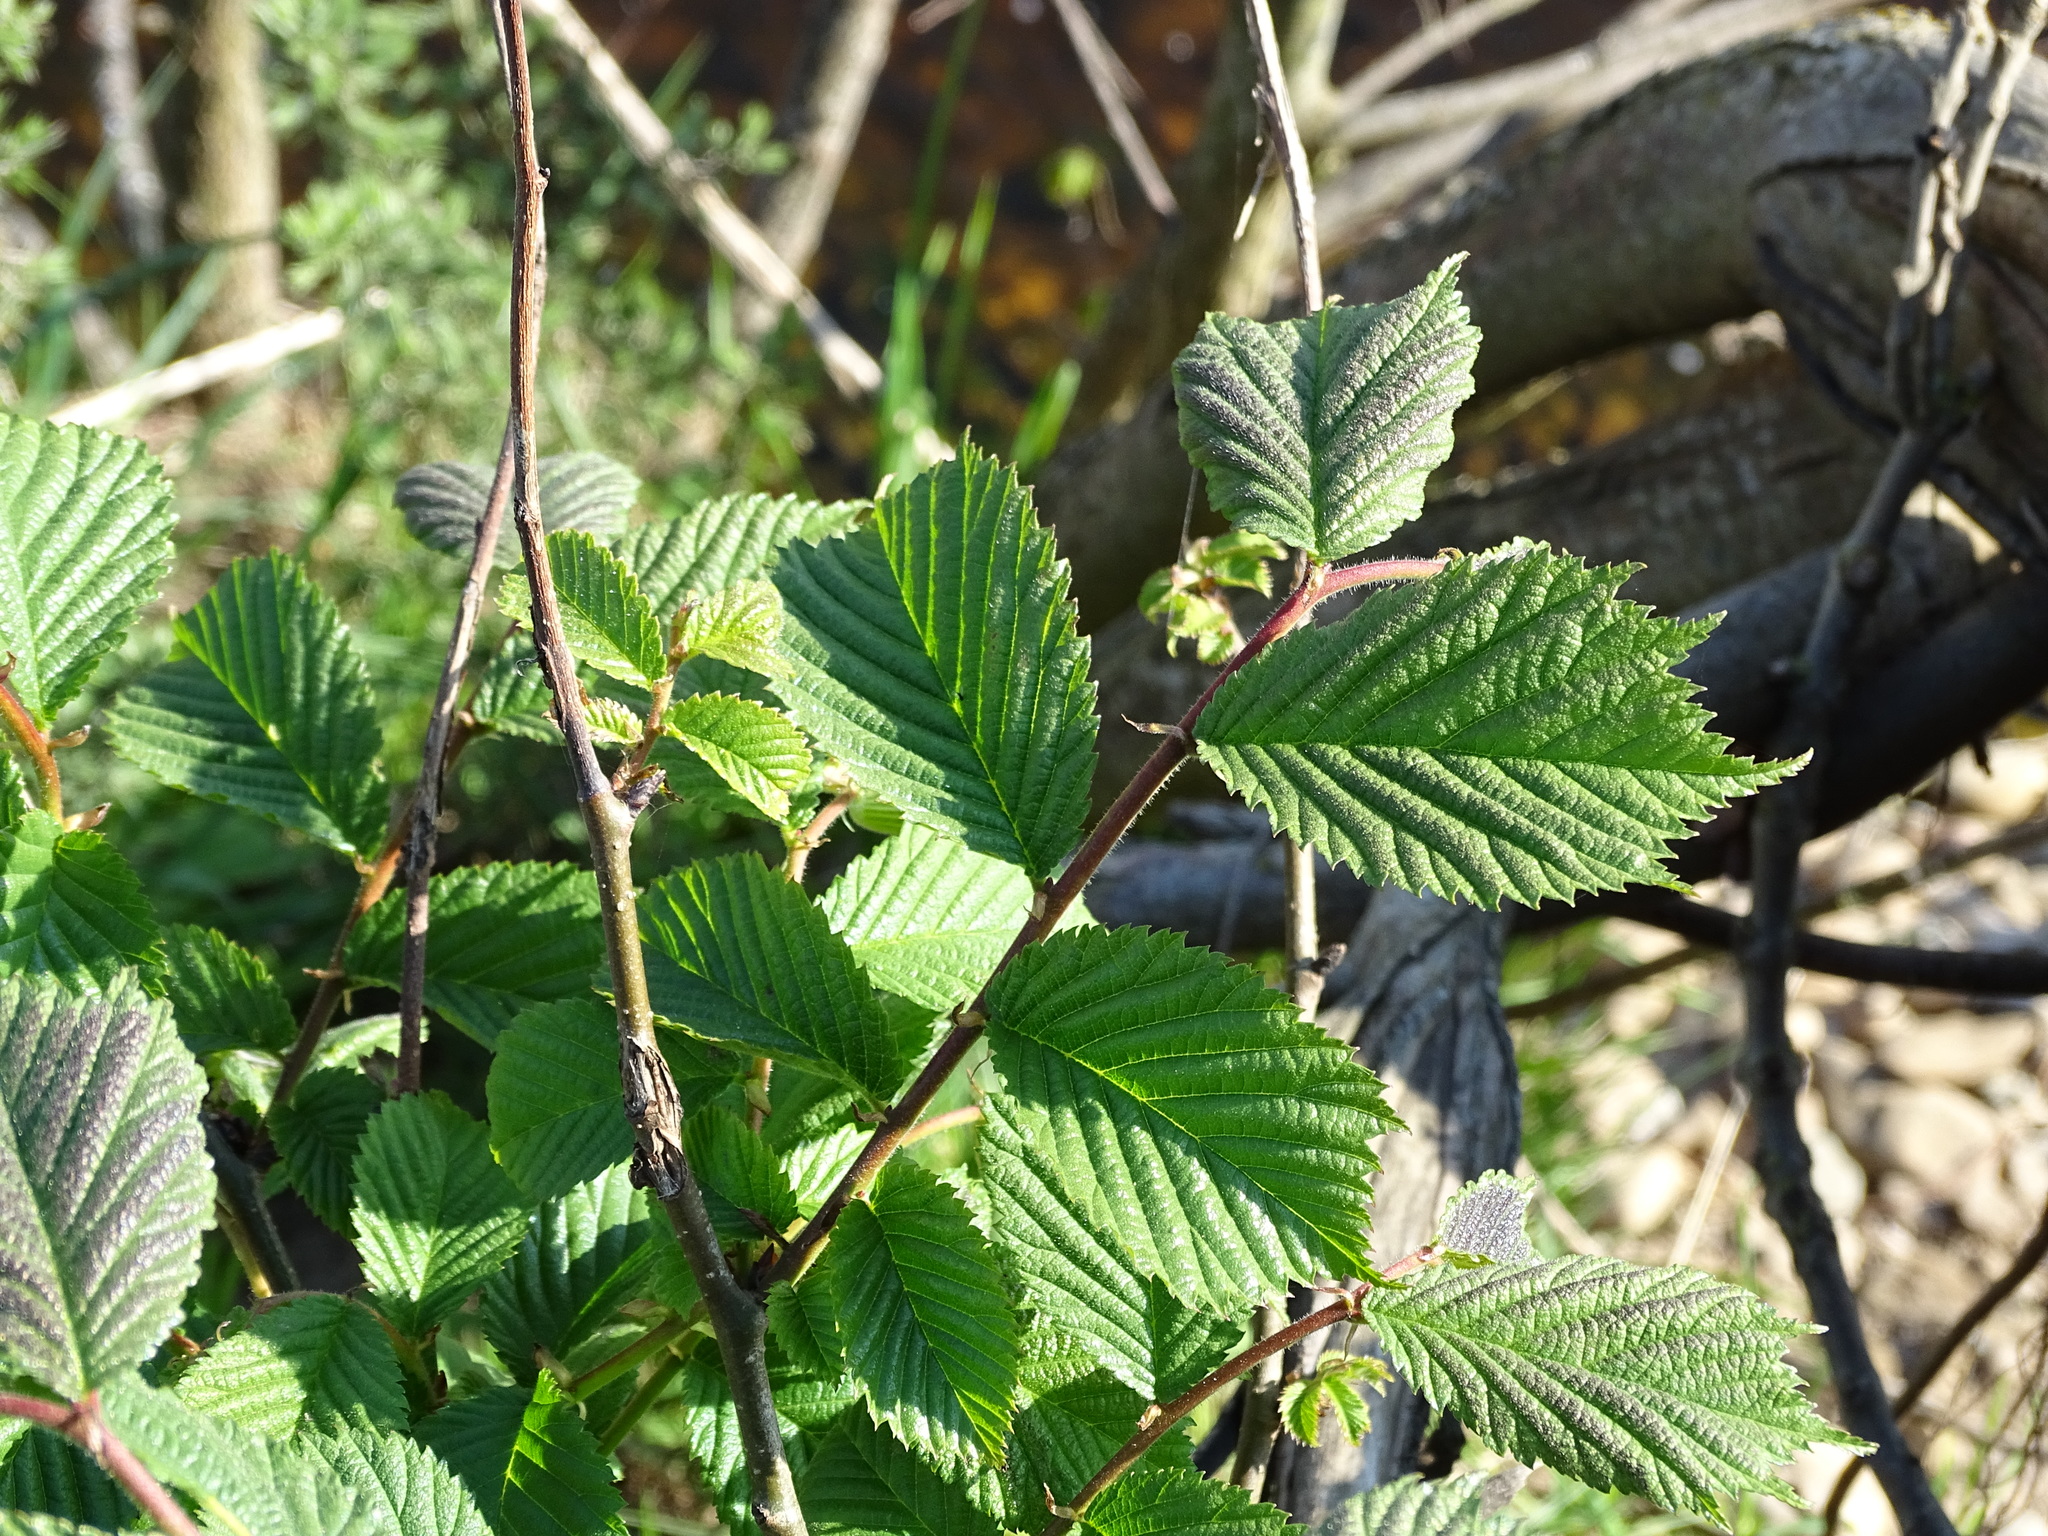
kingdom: Plantae
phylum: Tracheophyta
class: Magnoliopsida
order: Rosales
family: Ulmaceae
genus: Ulmus
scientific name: Ulmus glabra
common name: Wych elm
